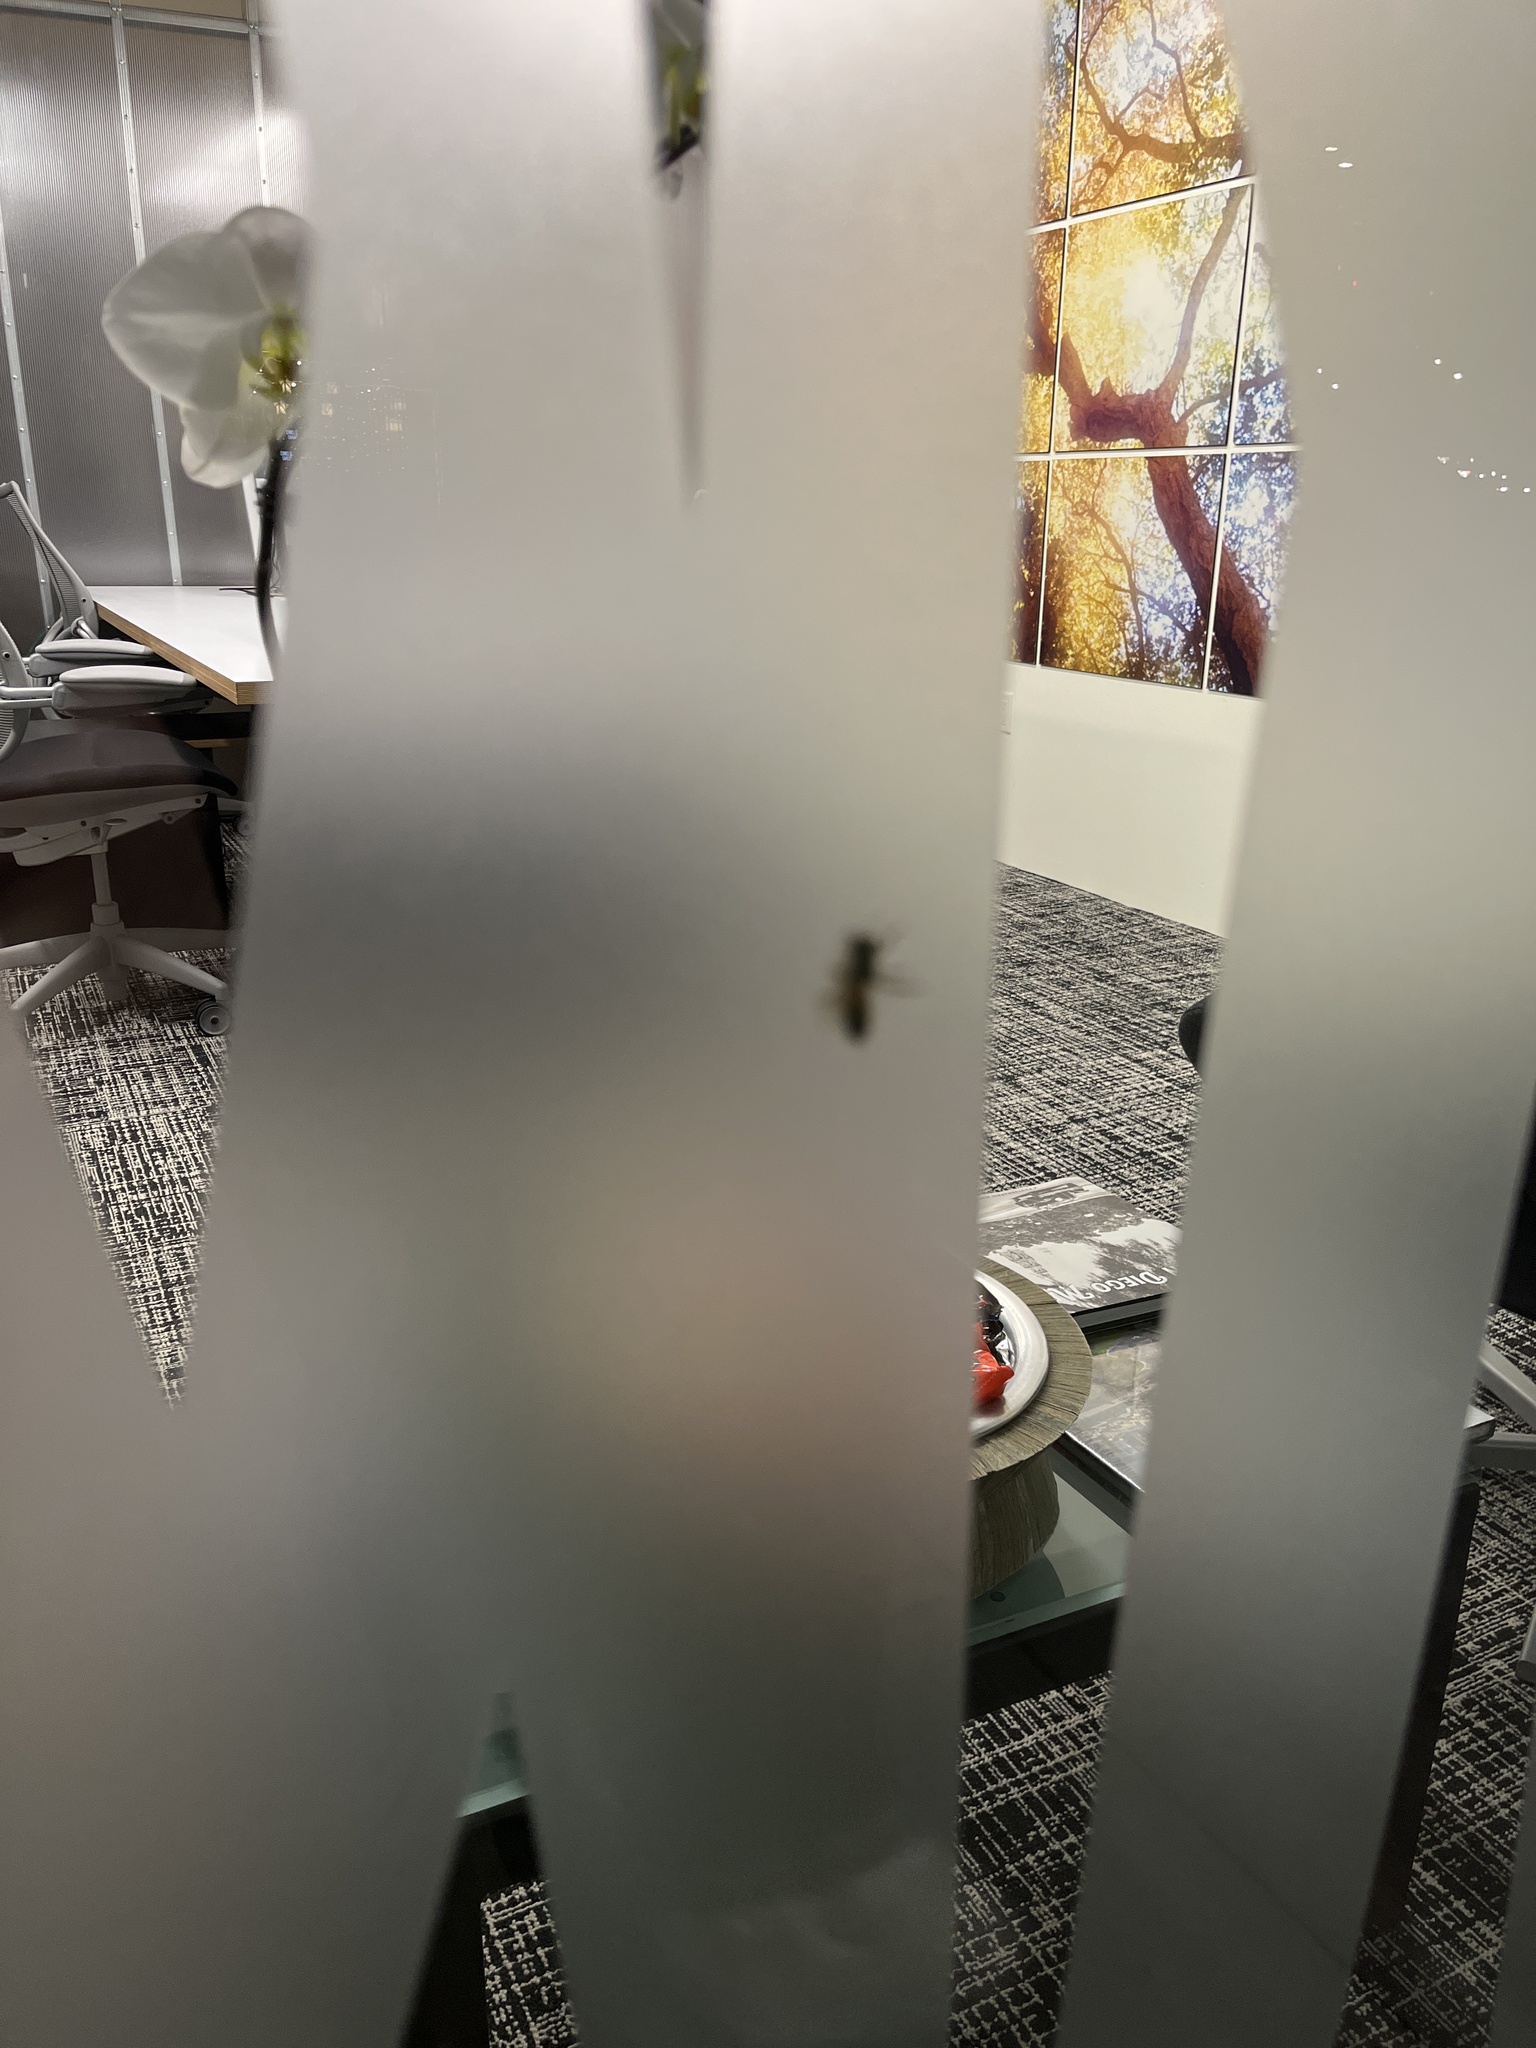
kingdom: Animalia
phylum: Arthropoda
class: Insecta
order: Hymenoptera
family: Apidae
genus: Apis
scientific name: Apis mellifera
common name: Honey bee
